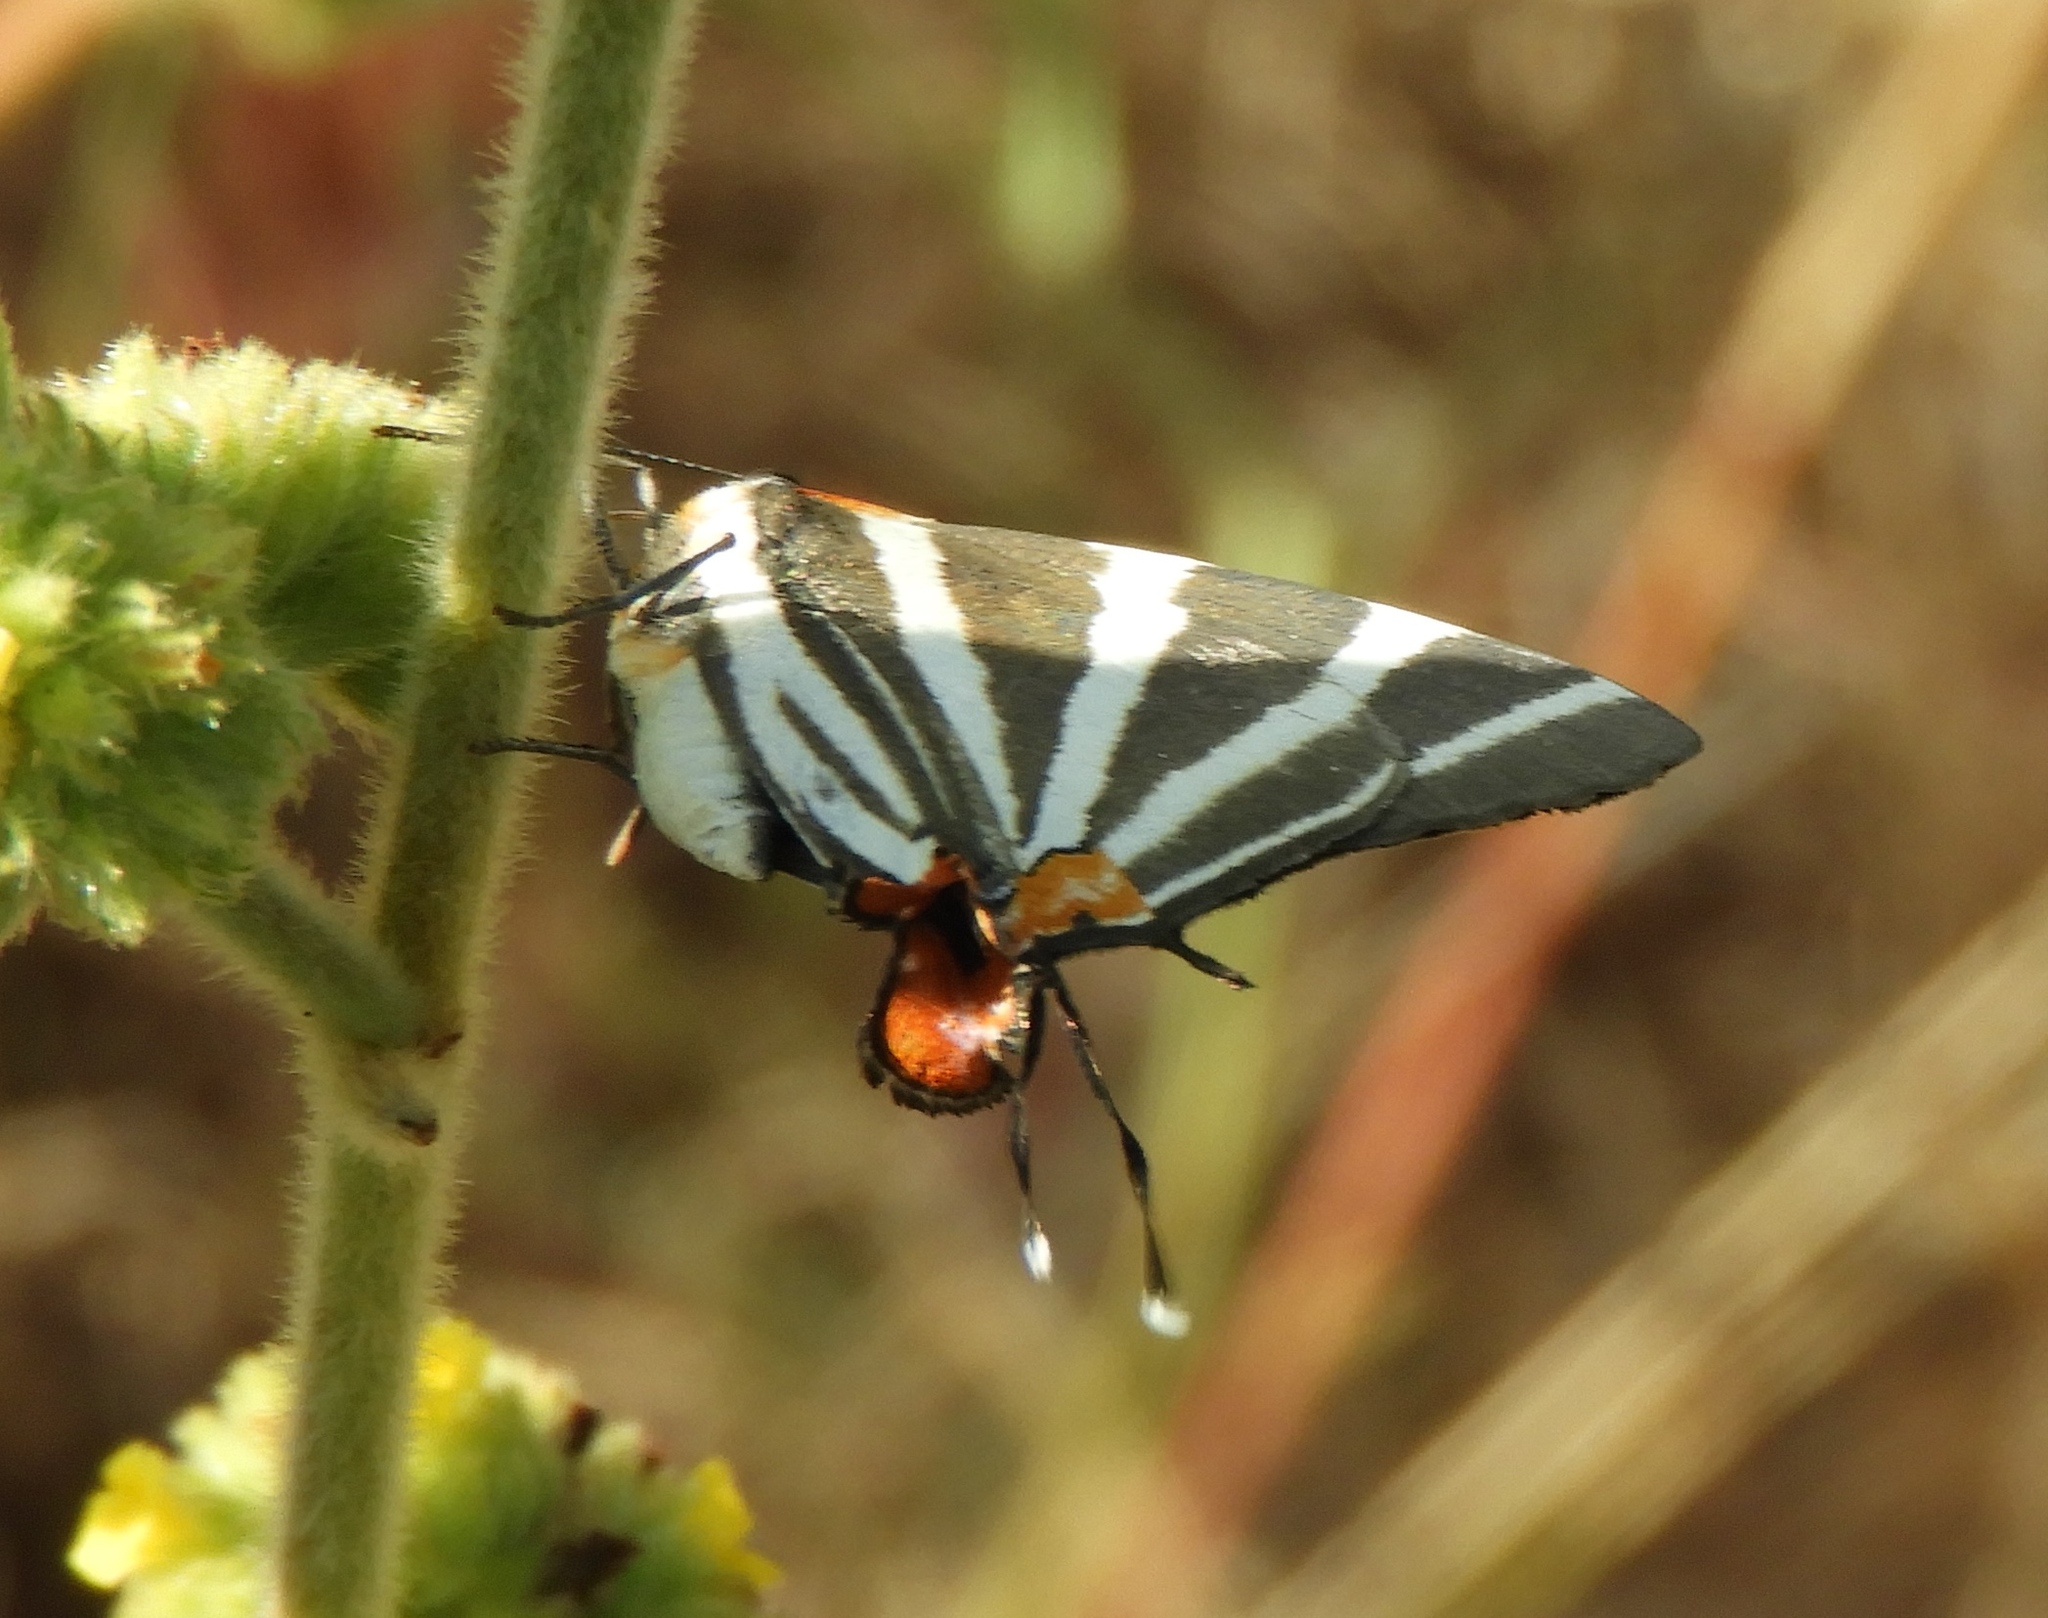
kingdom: Animalia
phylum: Arthropoda
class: Insecta
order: Lepidoptera
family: Lycaenidae
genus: Thecla
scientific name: Thecla bathildis
